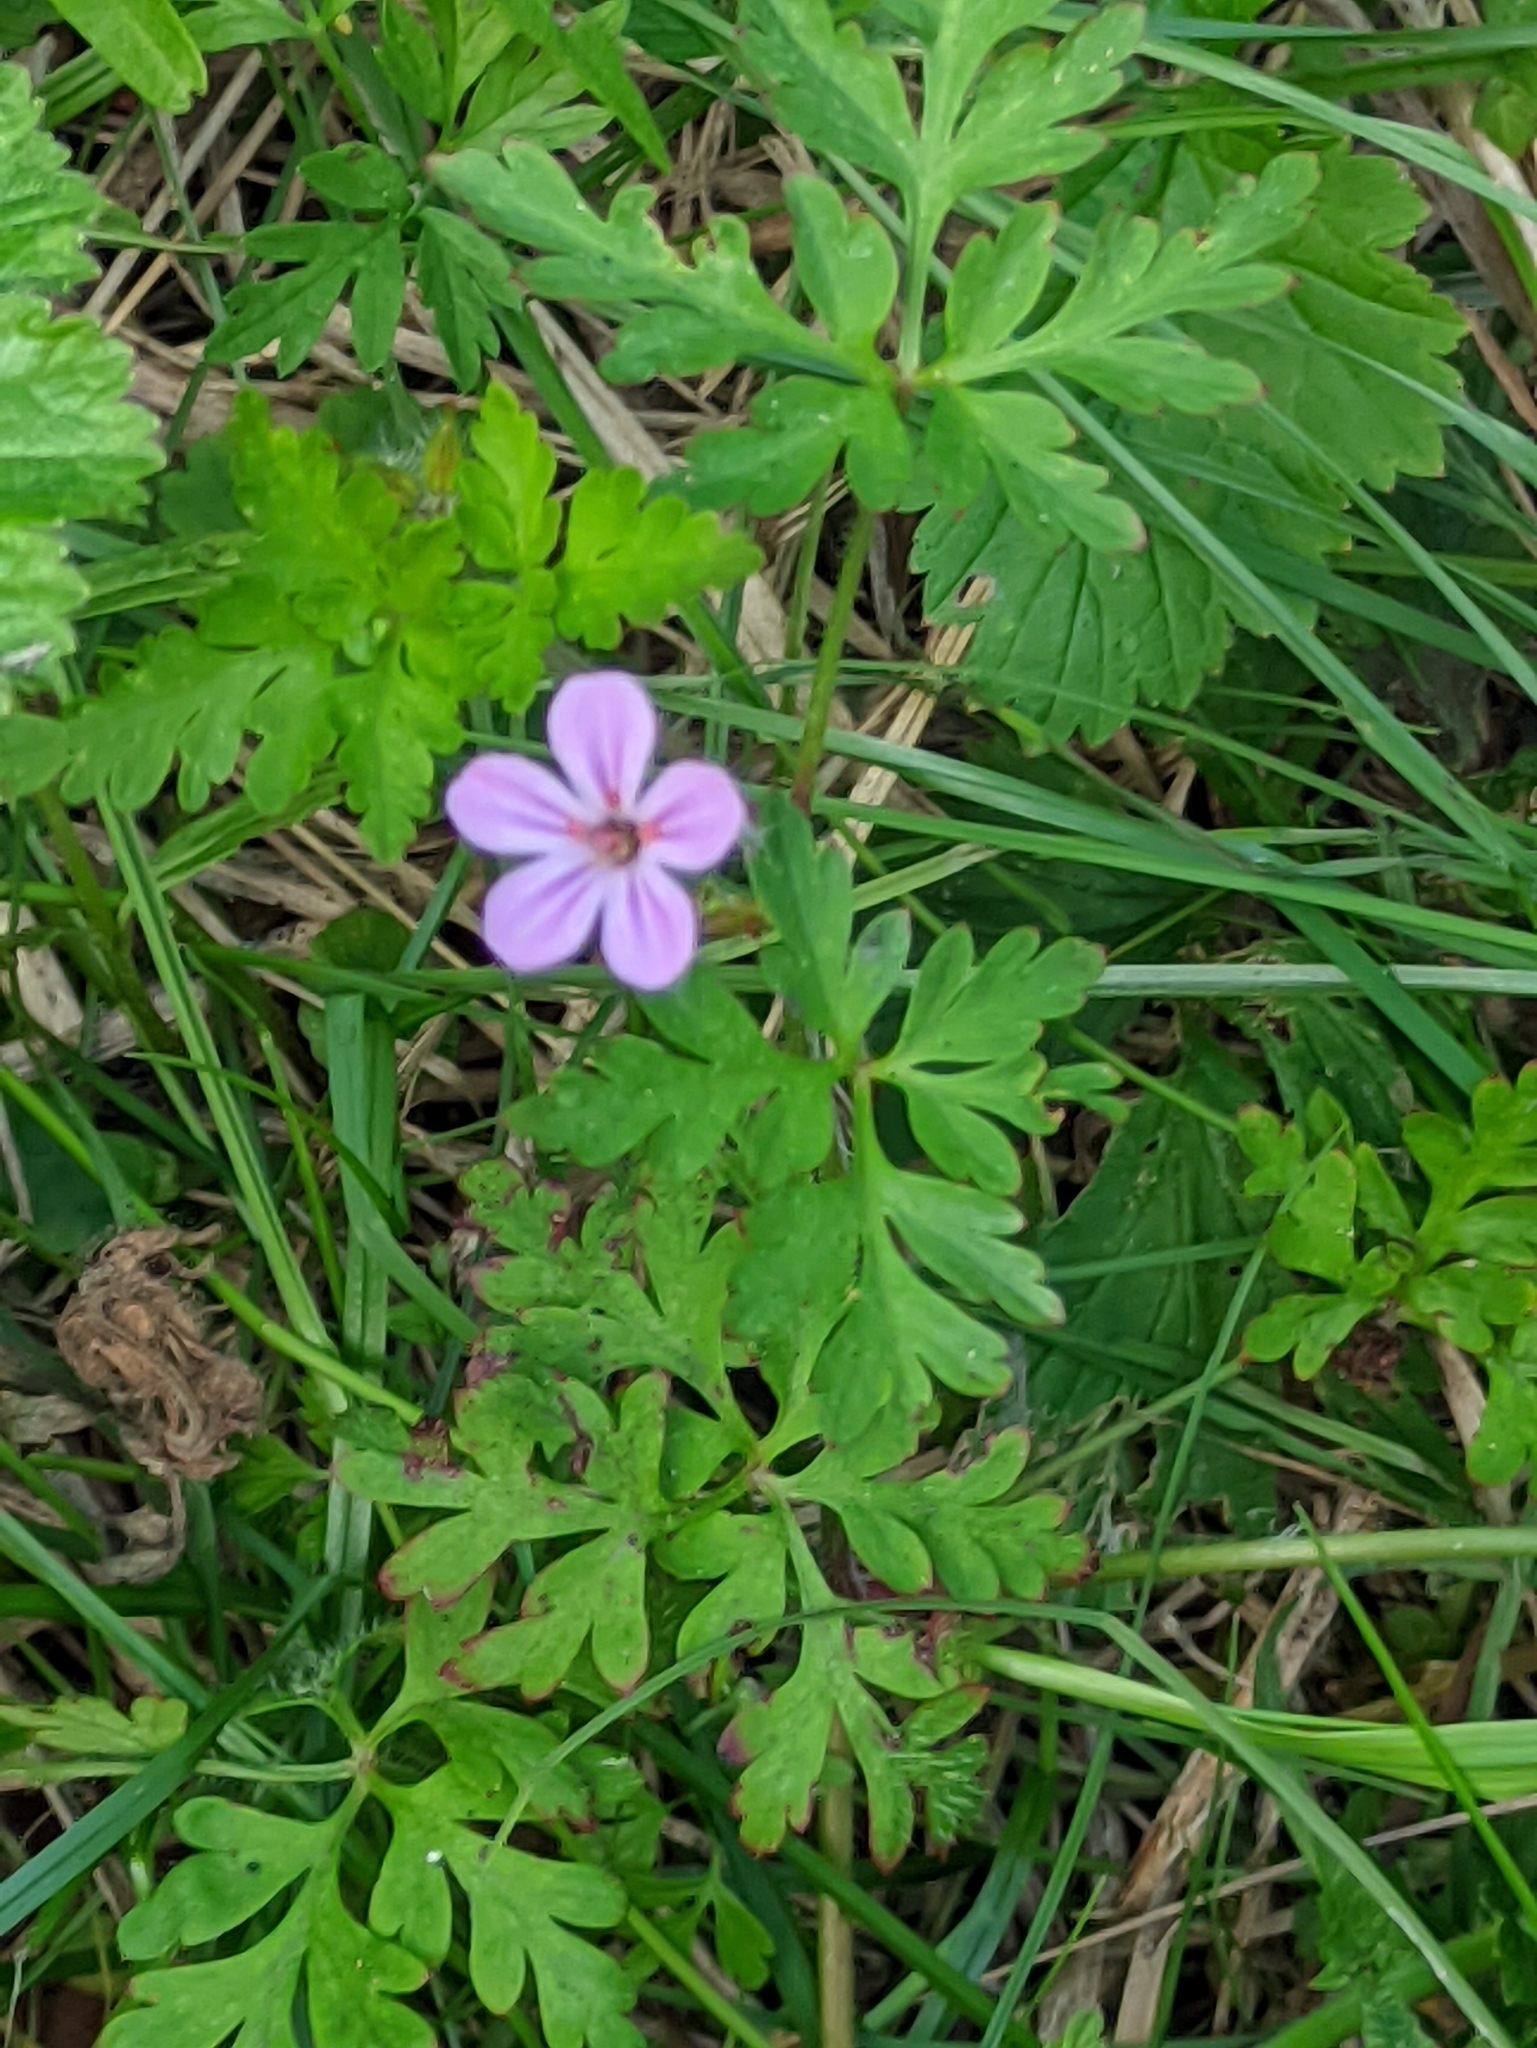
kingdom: Plantae
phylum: Tracheophyta
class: Magnoliopsida
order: Geraniales
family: Geraniaceae
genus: Geranium
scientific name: Geranium robertianum
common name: Herb-robert
